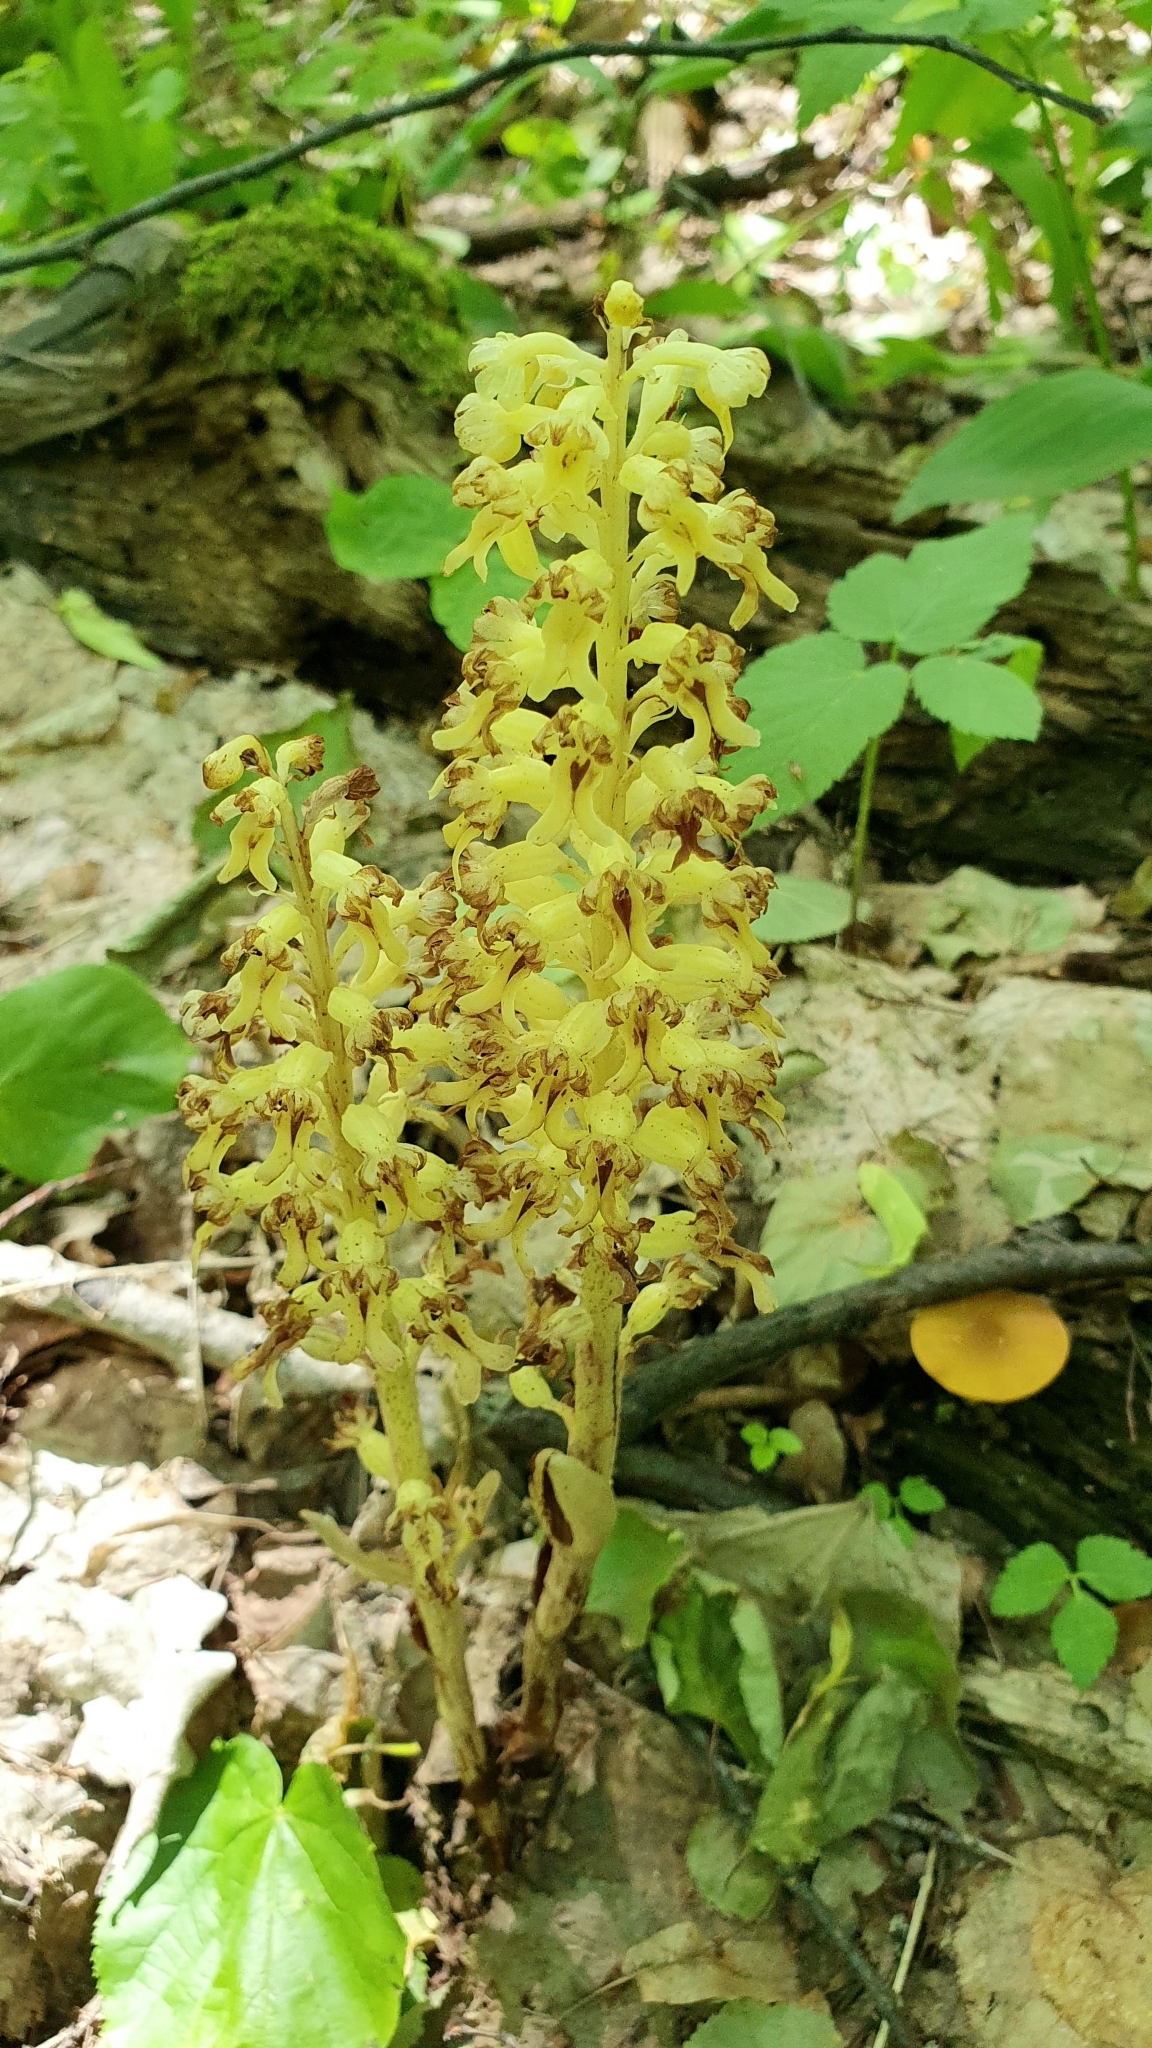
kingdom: Plantae
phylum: Tracheophyta
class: Liliopsida
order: Asparagales
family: Orchidaceae
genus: Neottia
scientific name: Neottia nidus-avis
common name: Bird's-nest orchid
